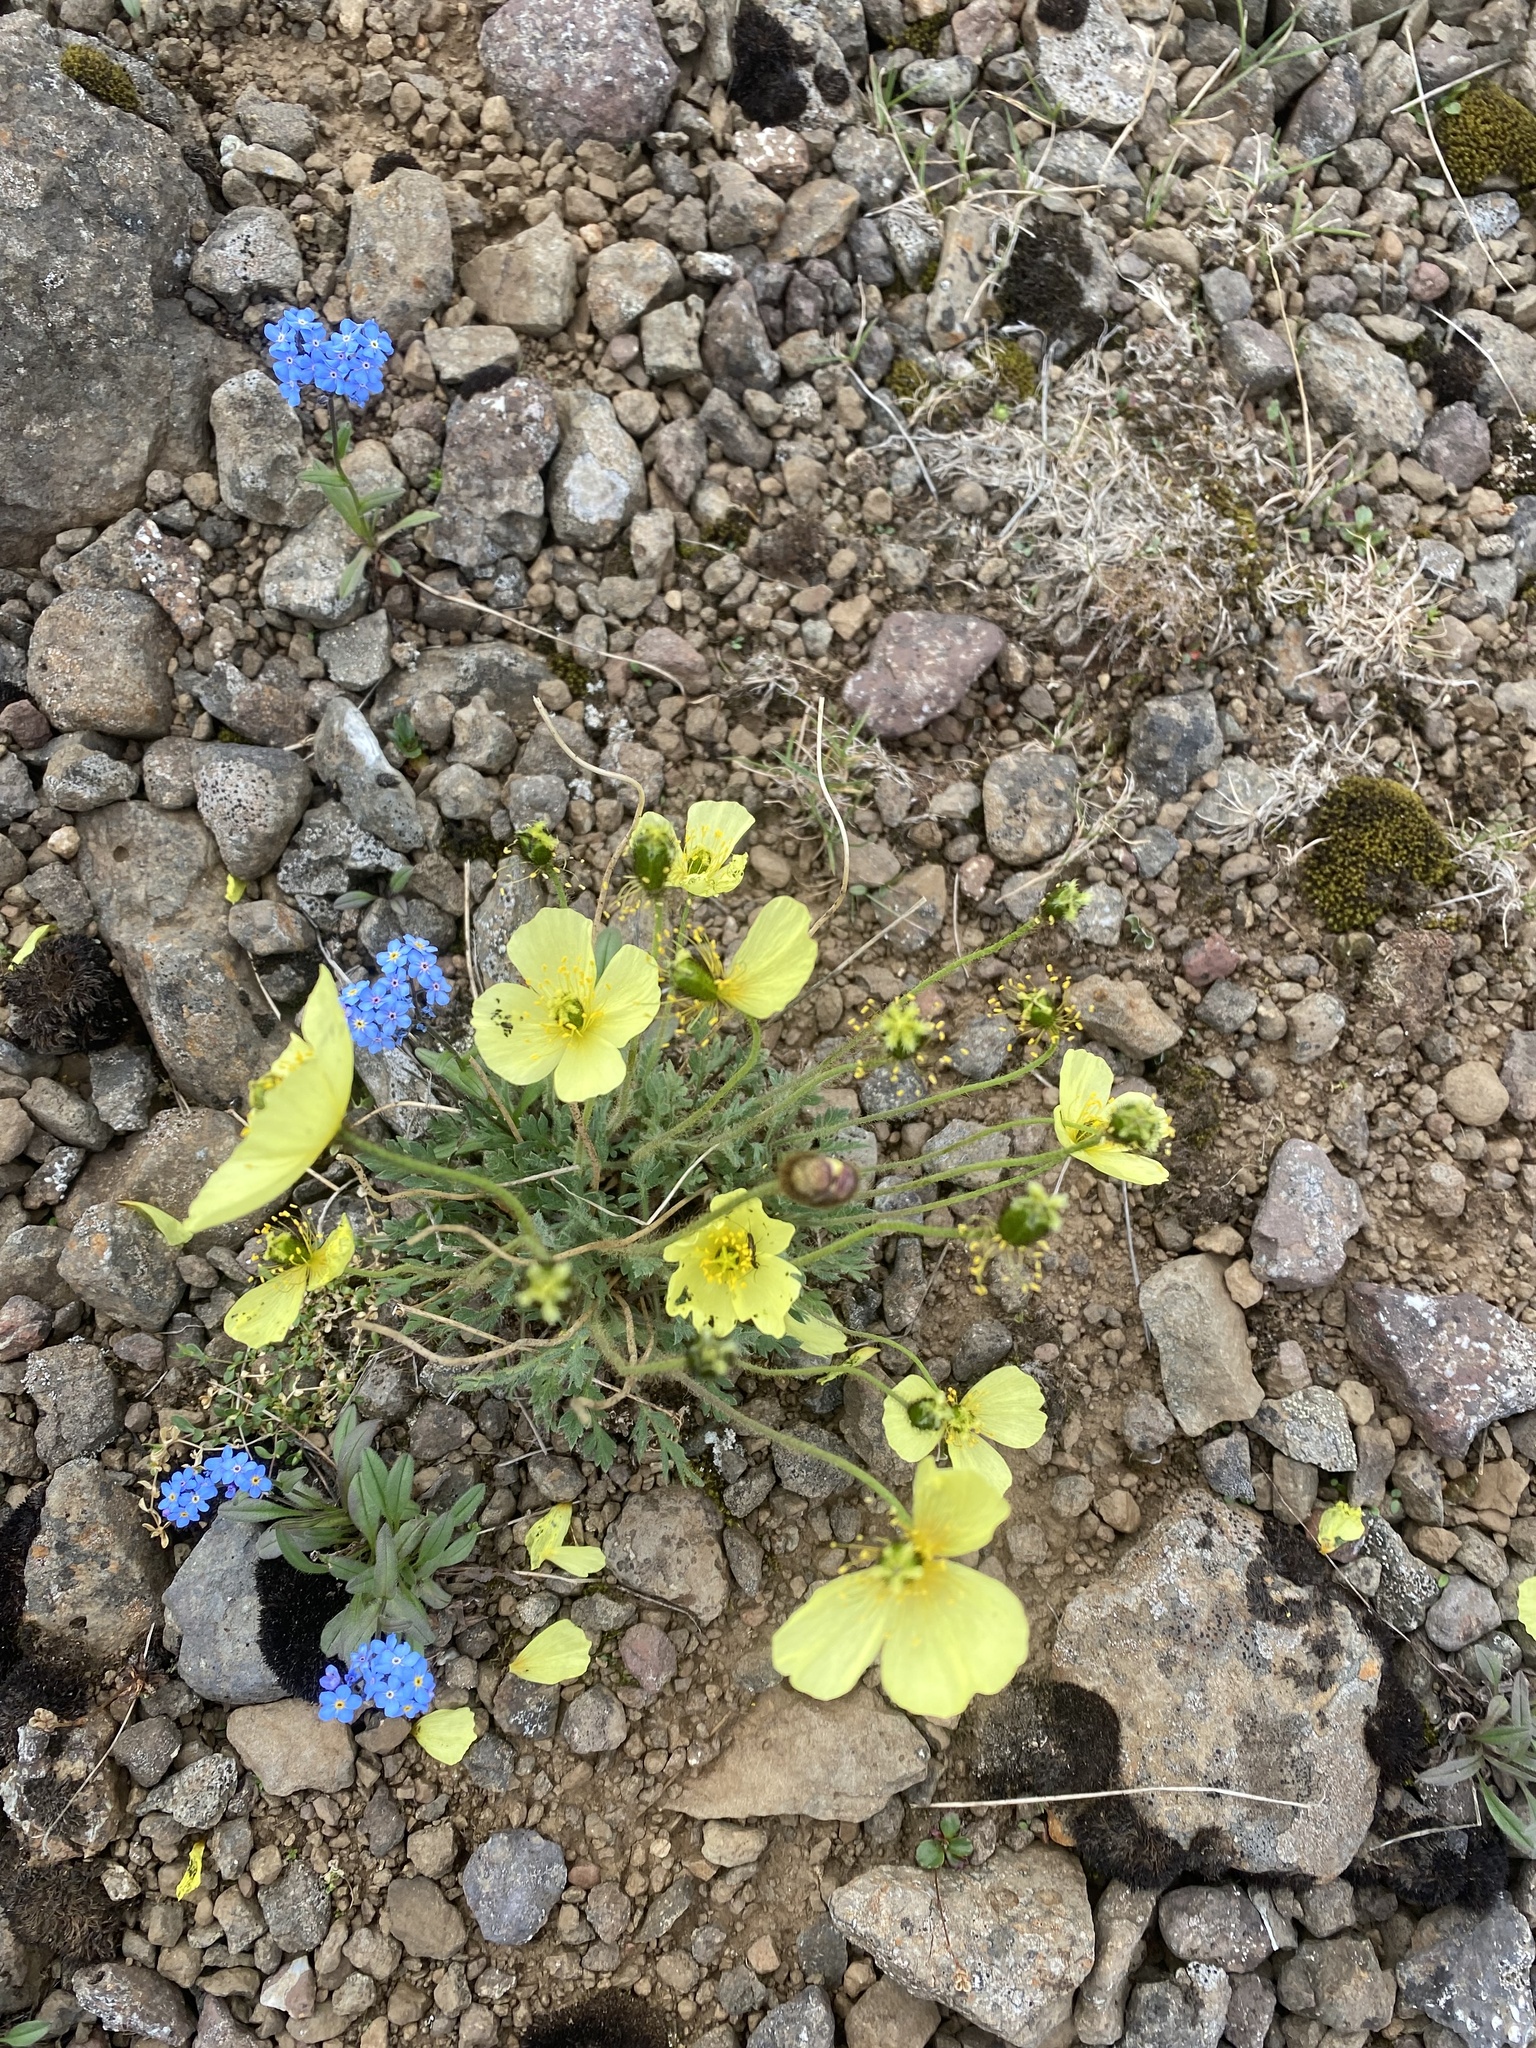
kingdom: Plantae
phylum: Tracheophyta
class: Magnoliopsida
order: Ranunculales
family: Papaveraceae
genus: Papaver
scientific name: Papaver pulvinatum
